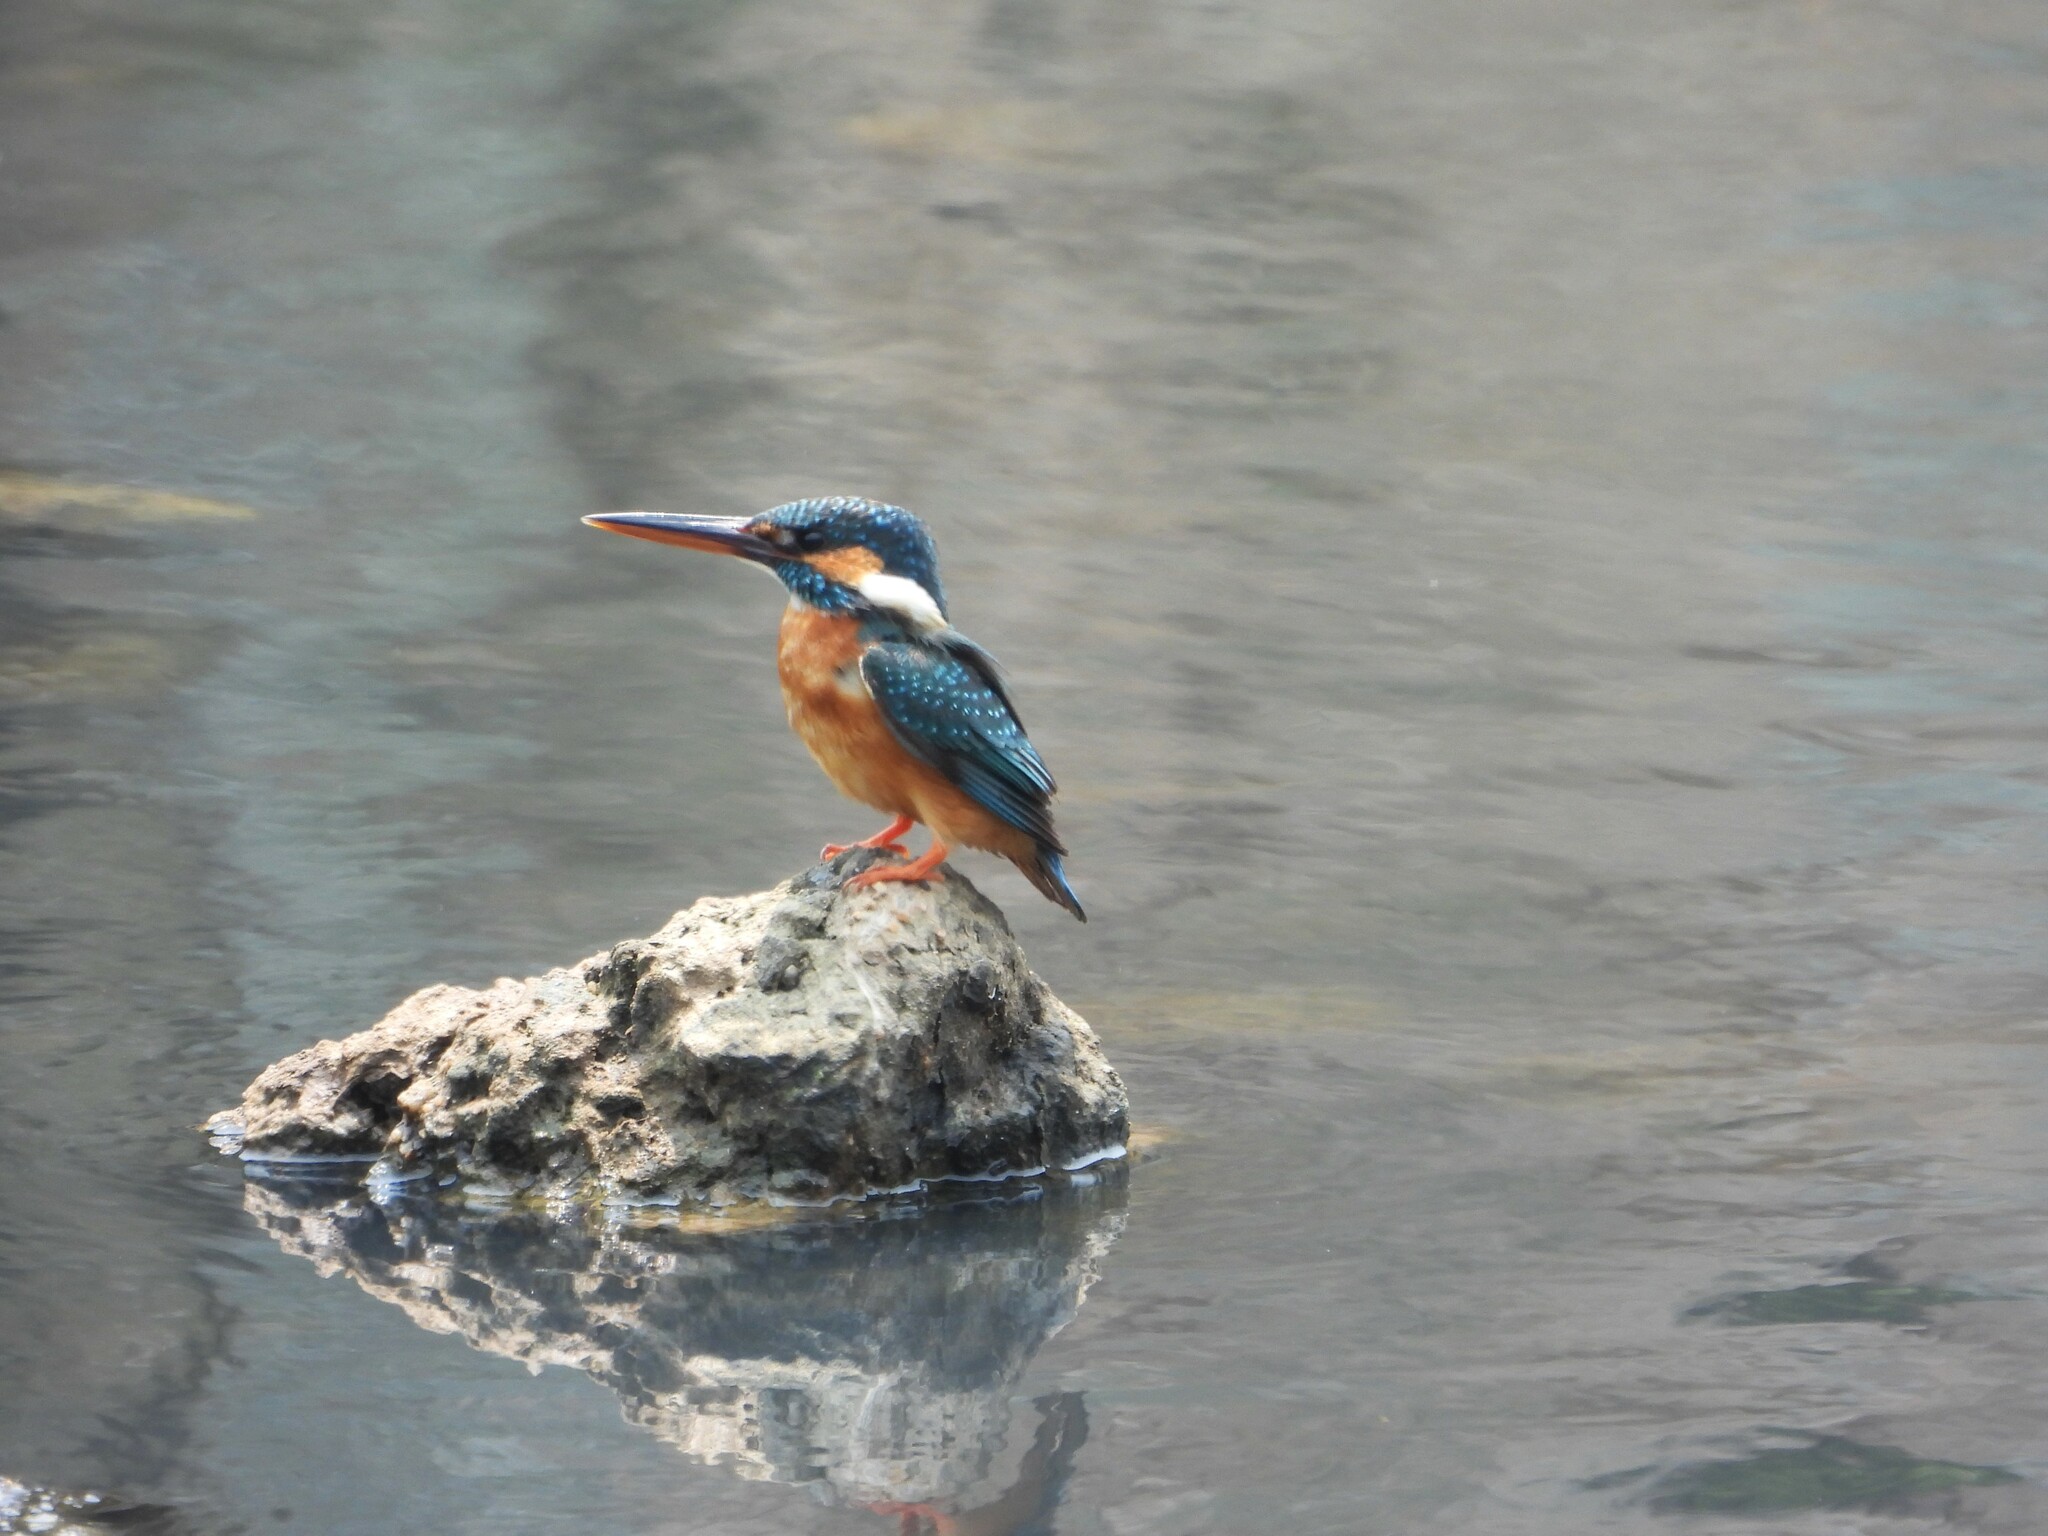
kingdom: Animalia
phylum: Chordata
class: Aves
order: Coraciiformes
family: Alcedinidae
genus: Alcedo
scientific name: Alcedo atthis
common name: Common kingfisher
